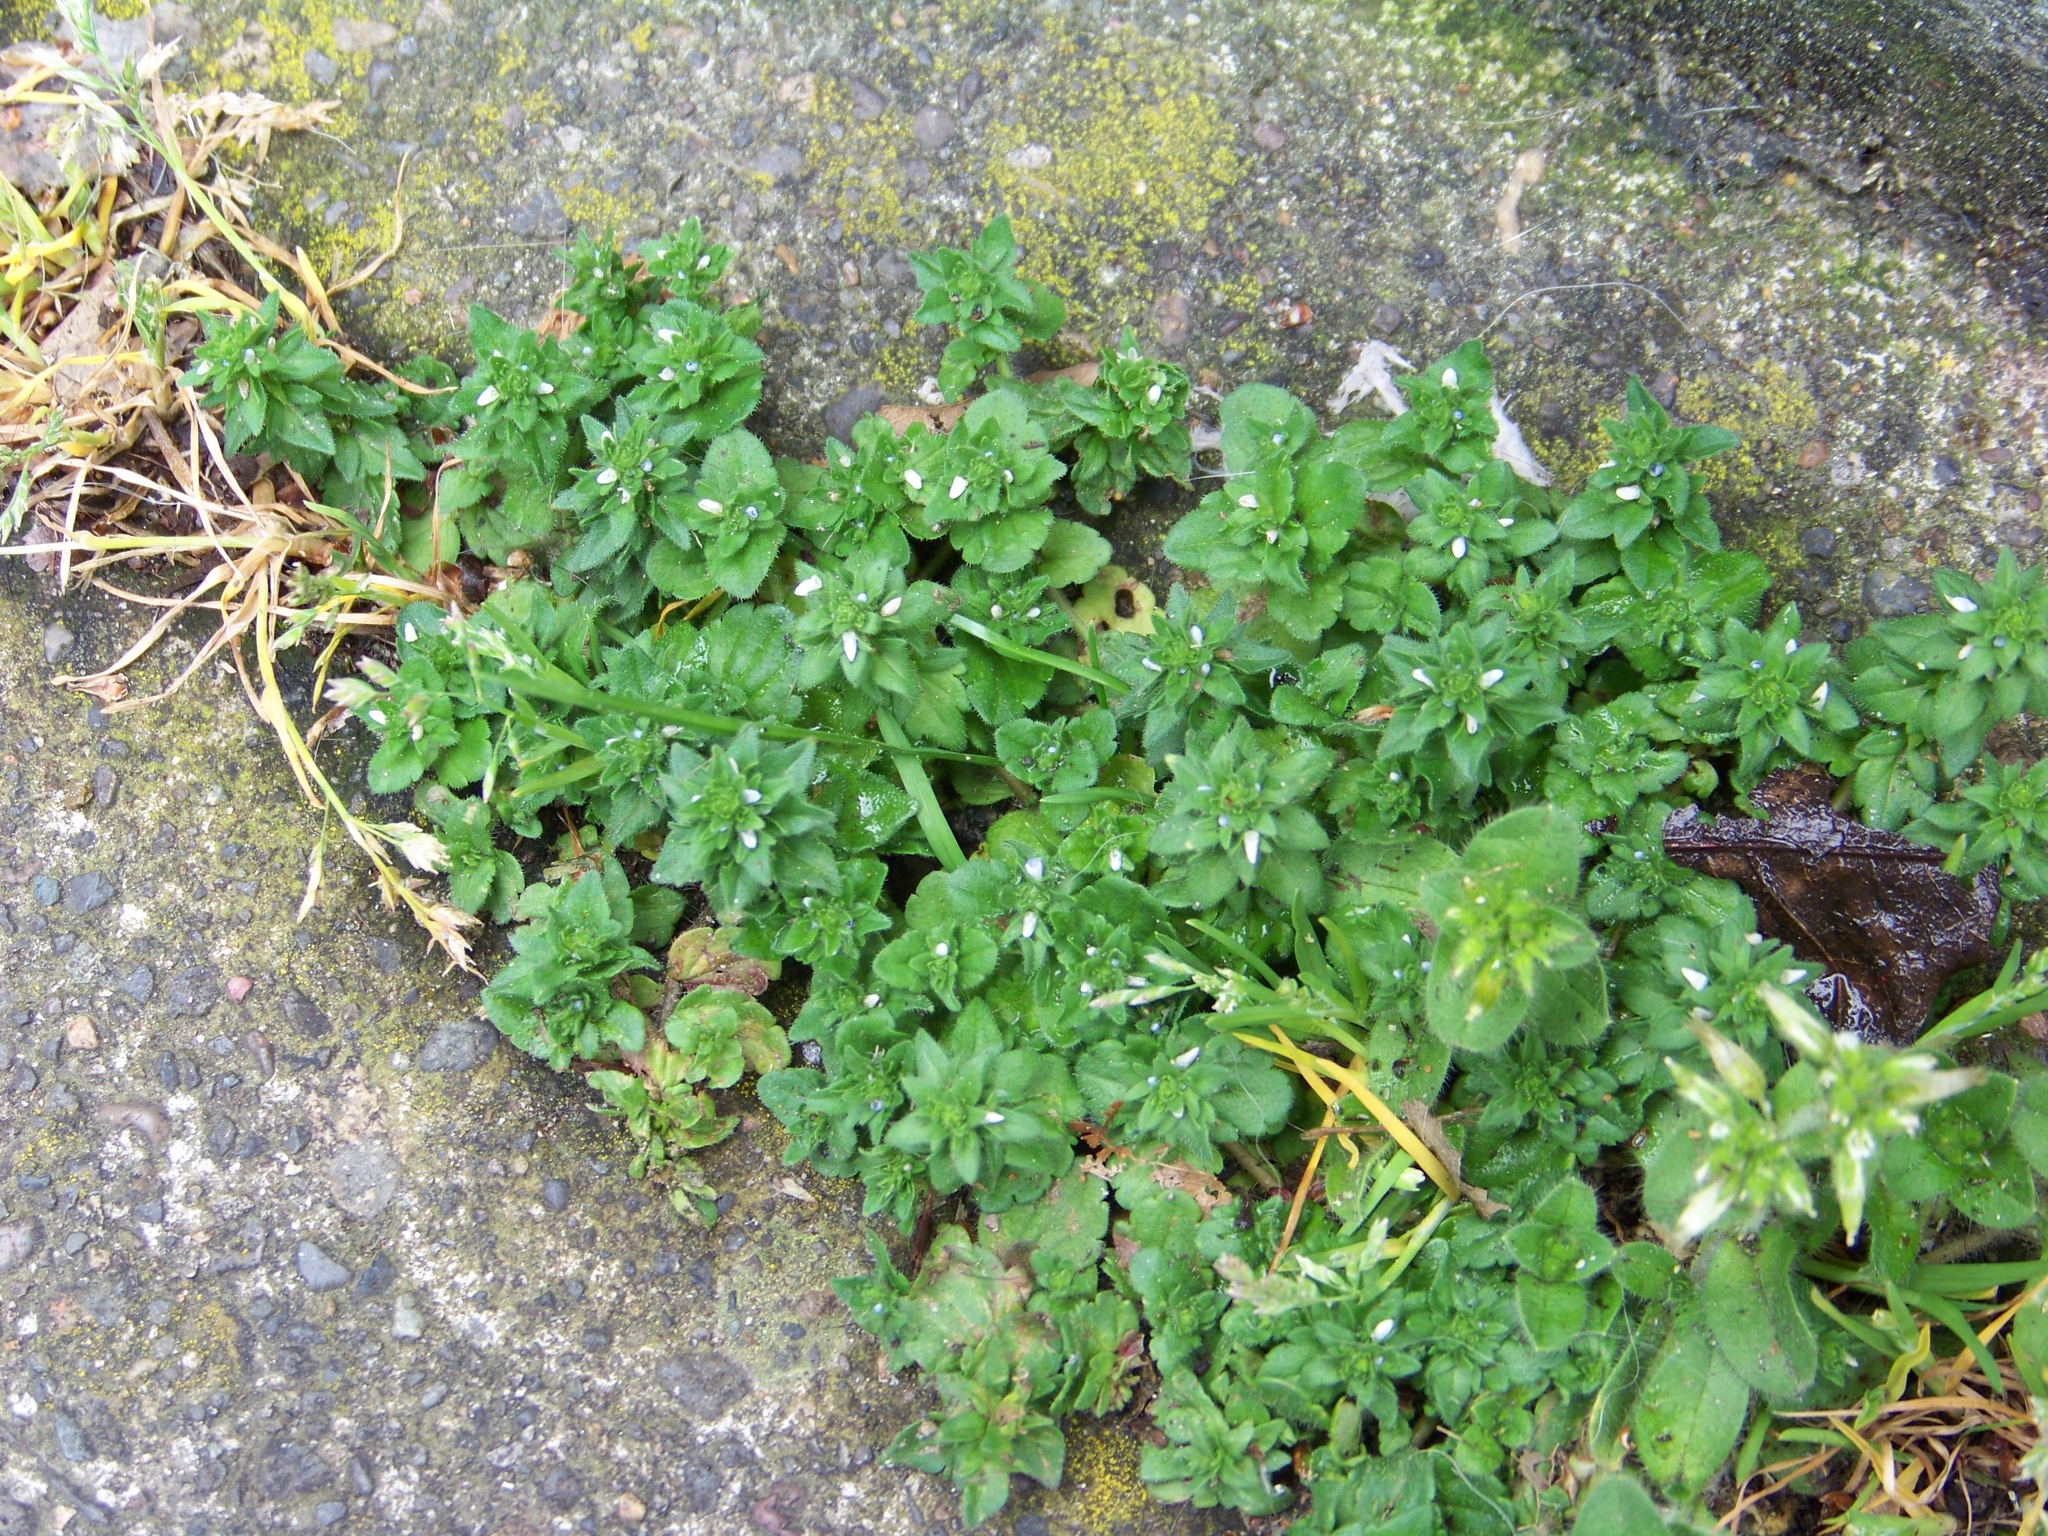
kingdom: Plantae
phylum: Tracheophyta
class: Magnoliopsida
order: Lamiales
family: Plantaginaceae
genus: Veronica
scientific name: Veronica arvensis
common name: Corn speedwell
